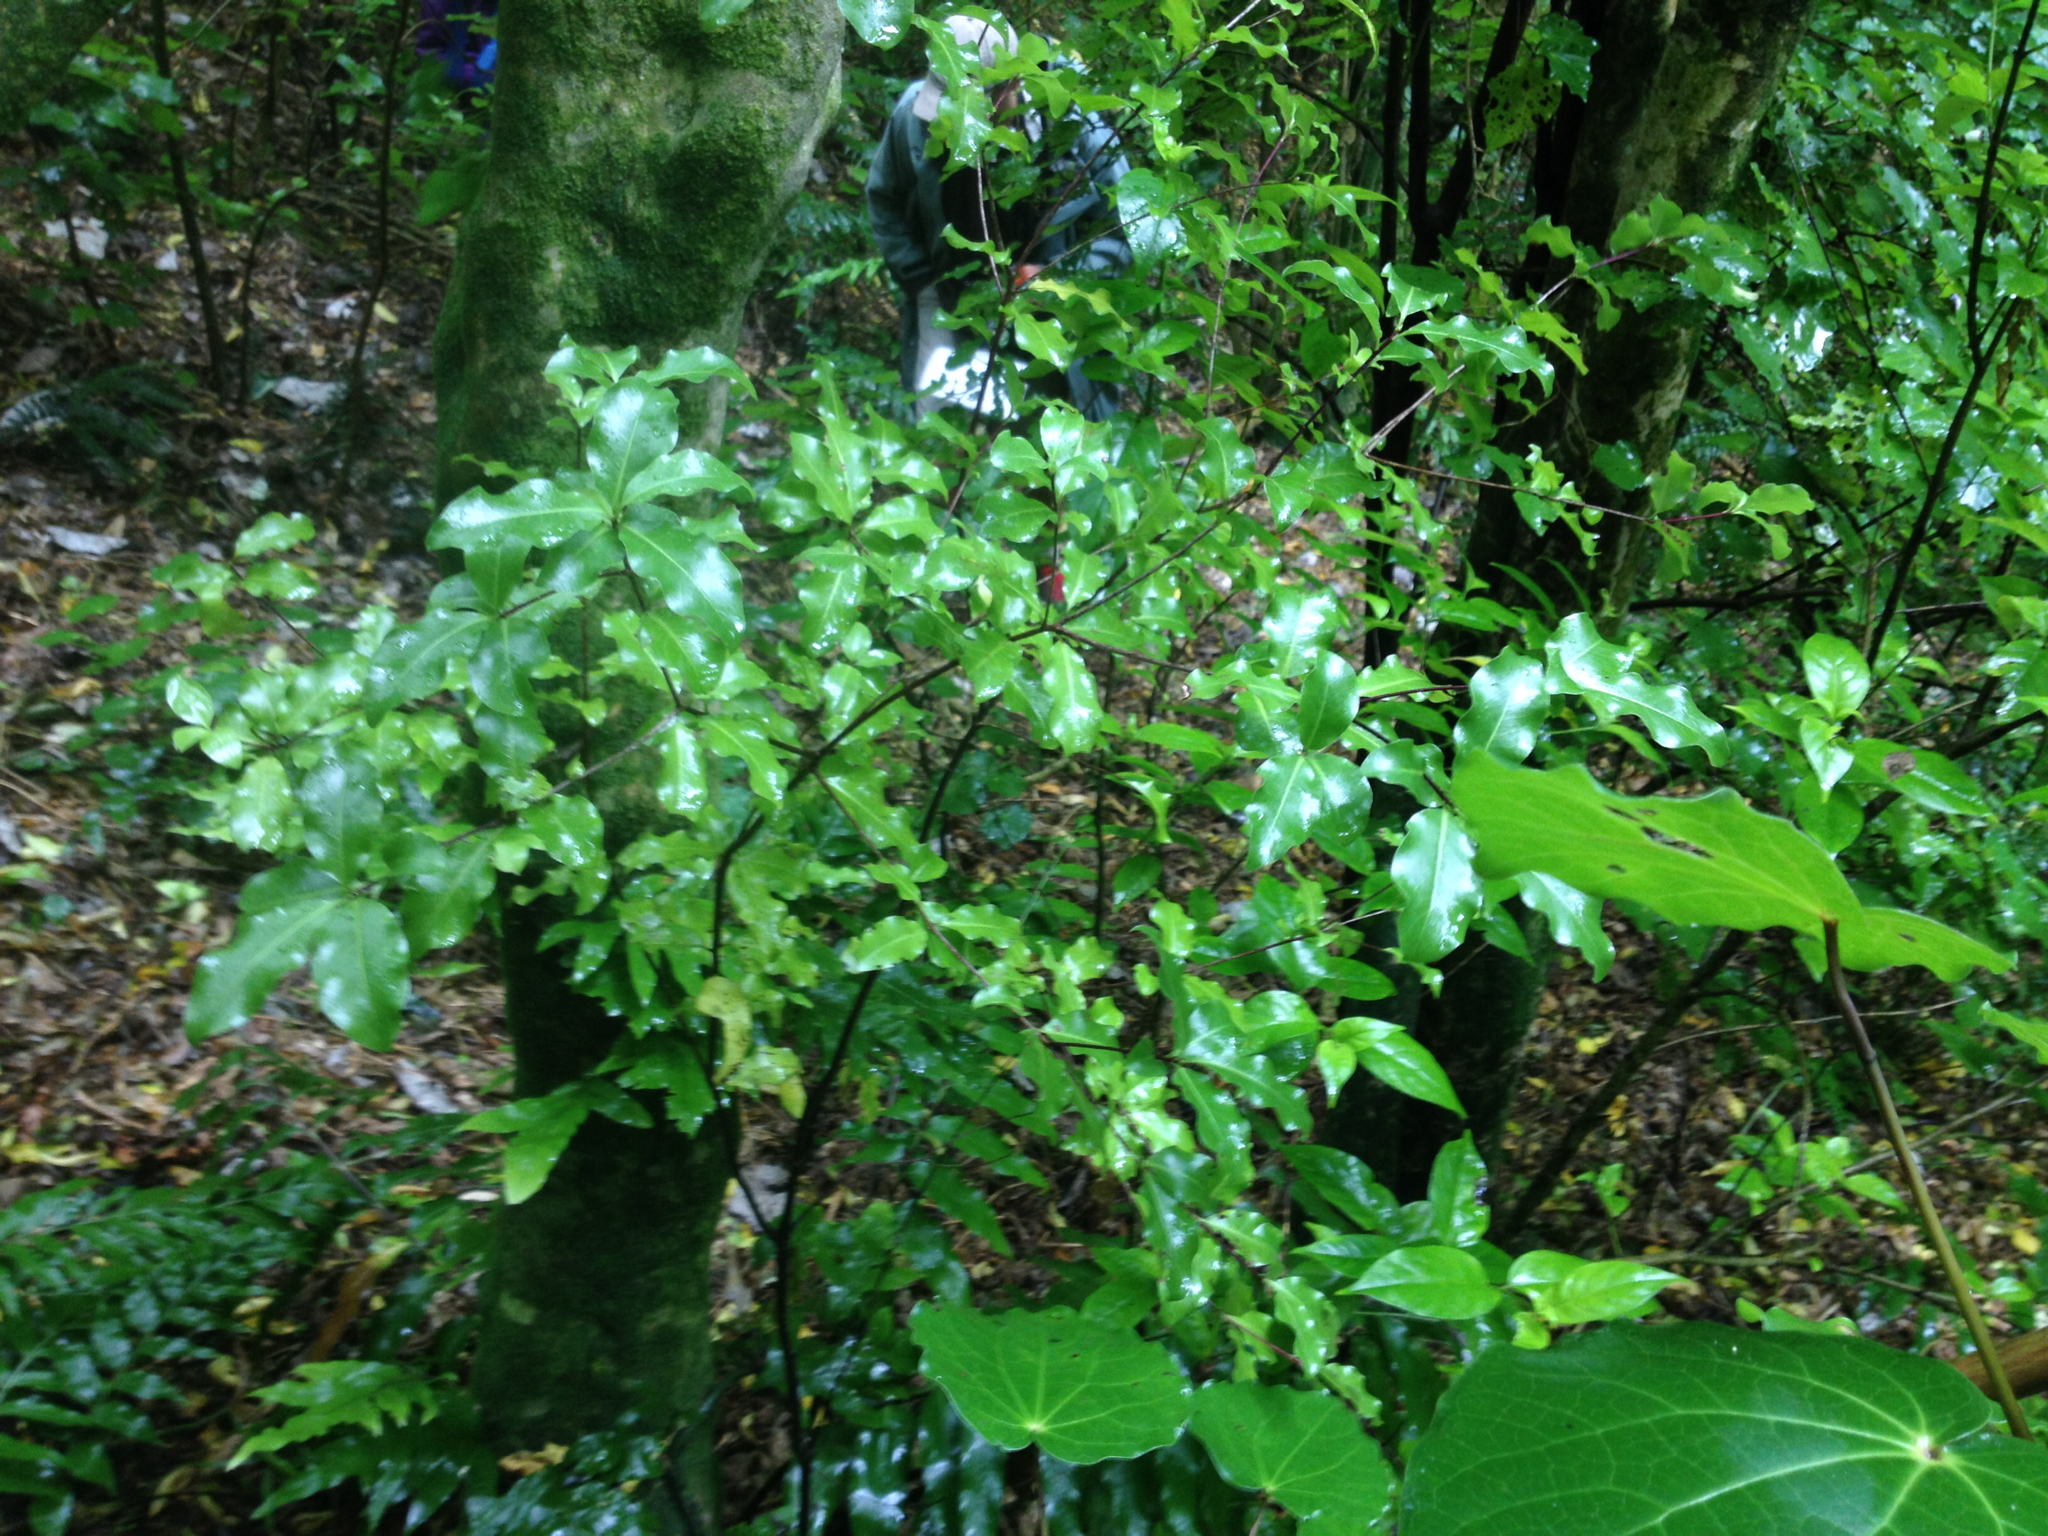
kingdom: Plantae
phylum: Tracheophyta
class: Magnoliopsida
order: Apiales
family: Pittosporaceae
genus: Pittosporum
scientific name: Pittosporum tenuifolium
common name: Kohuhu
